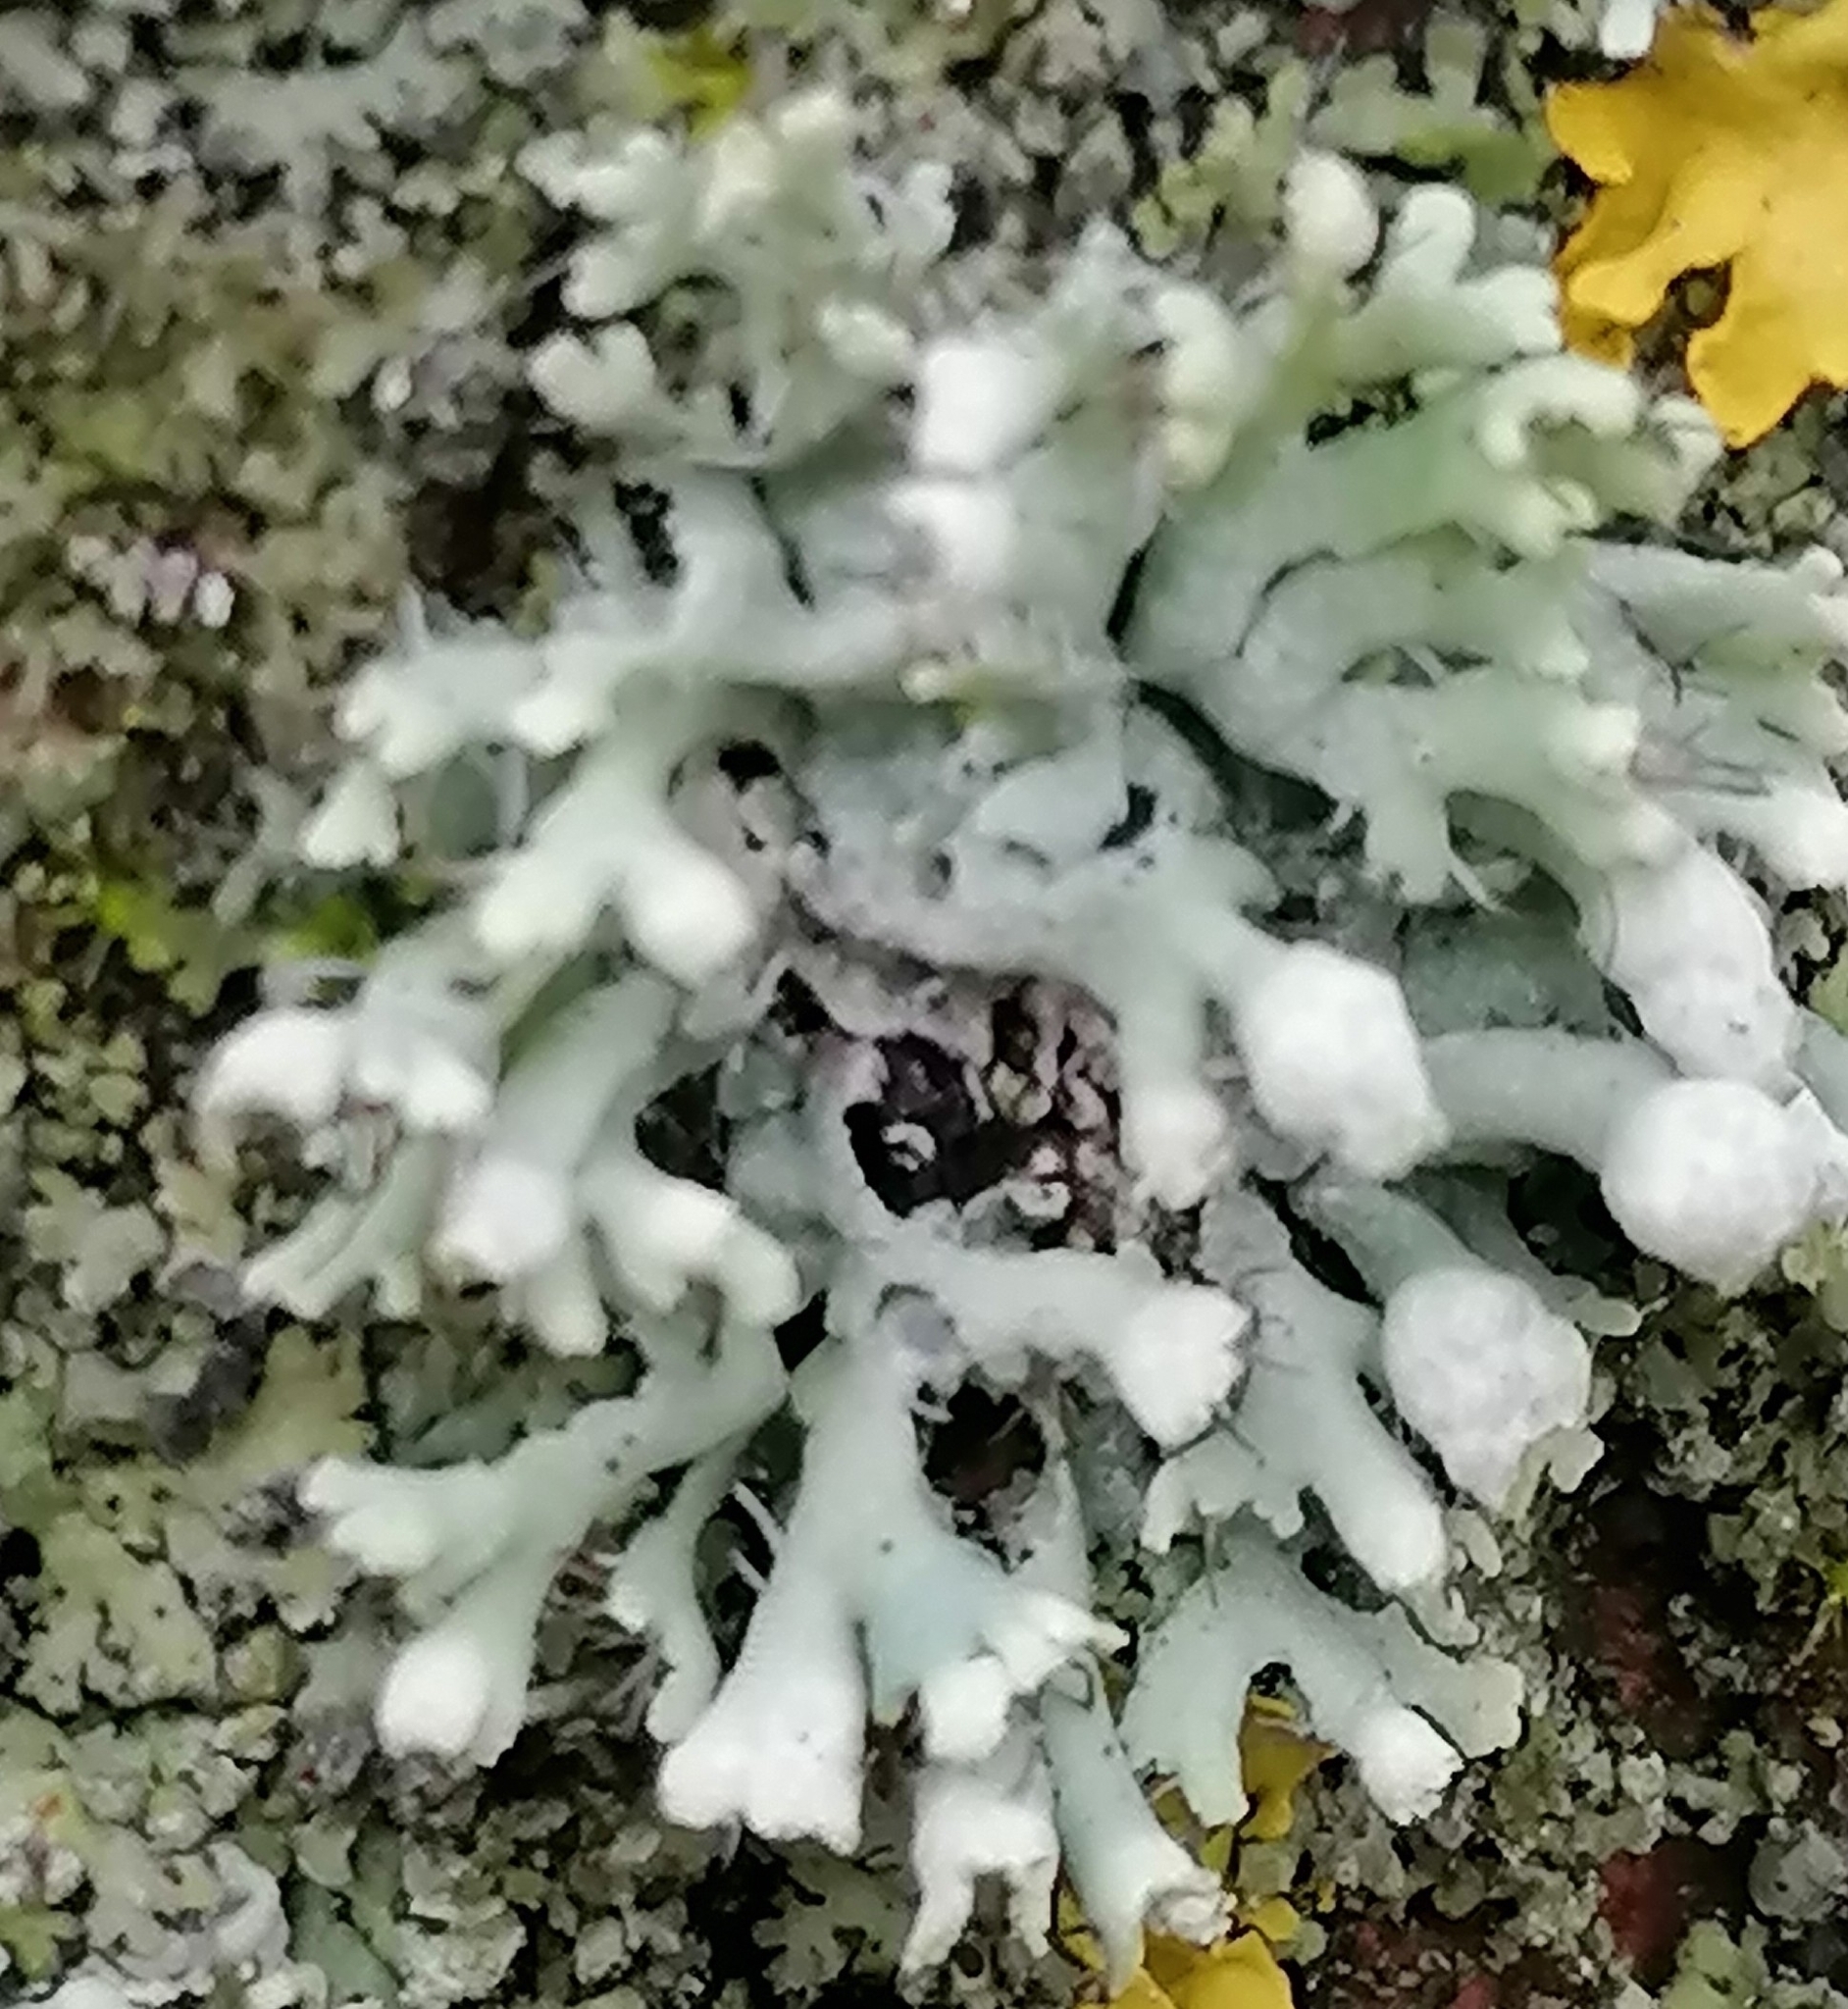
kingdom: Fungi
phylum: Ascomycota
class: Lecanoromycetes
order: Caliciales
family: Physciaceae
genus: Physcia
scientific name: Physcia adscendens
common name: Hooded rosette lichen
